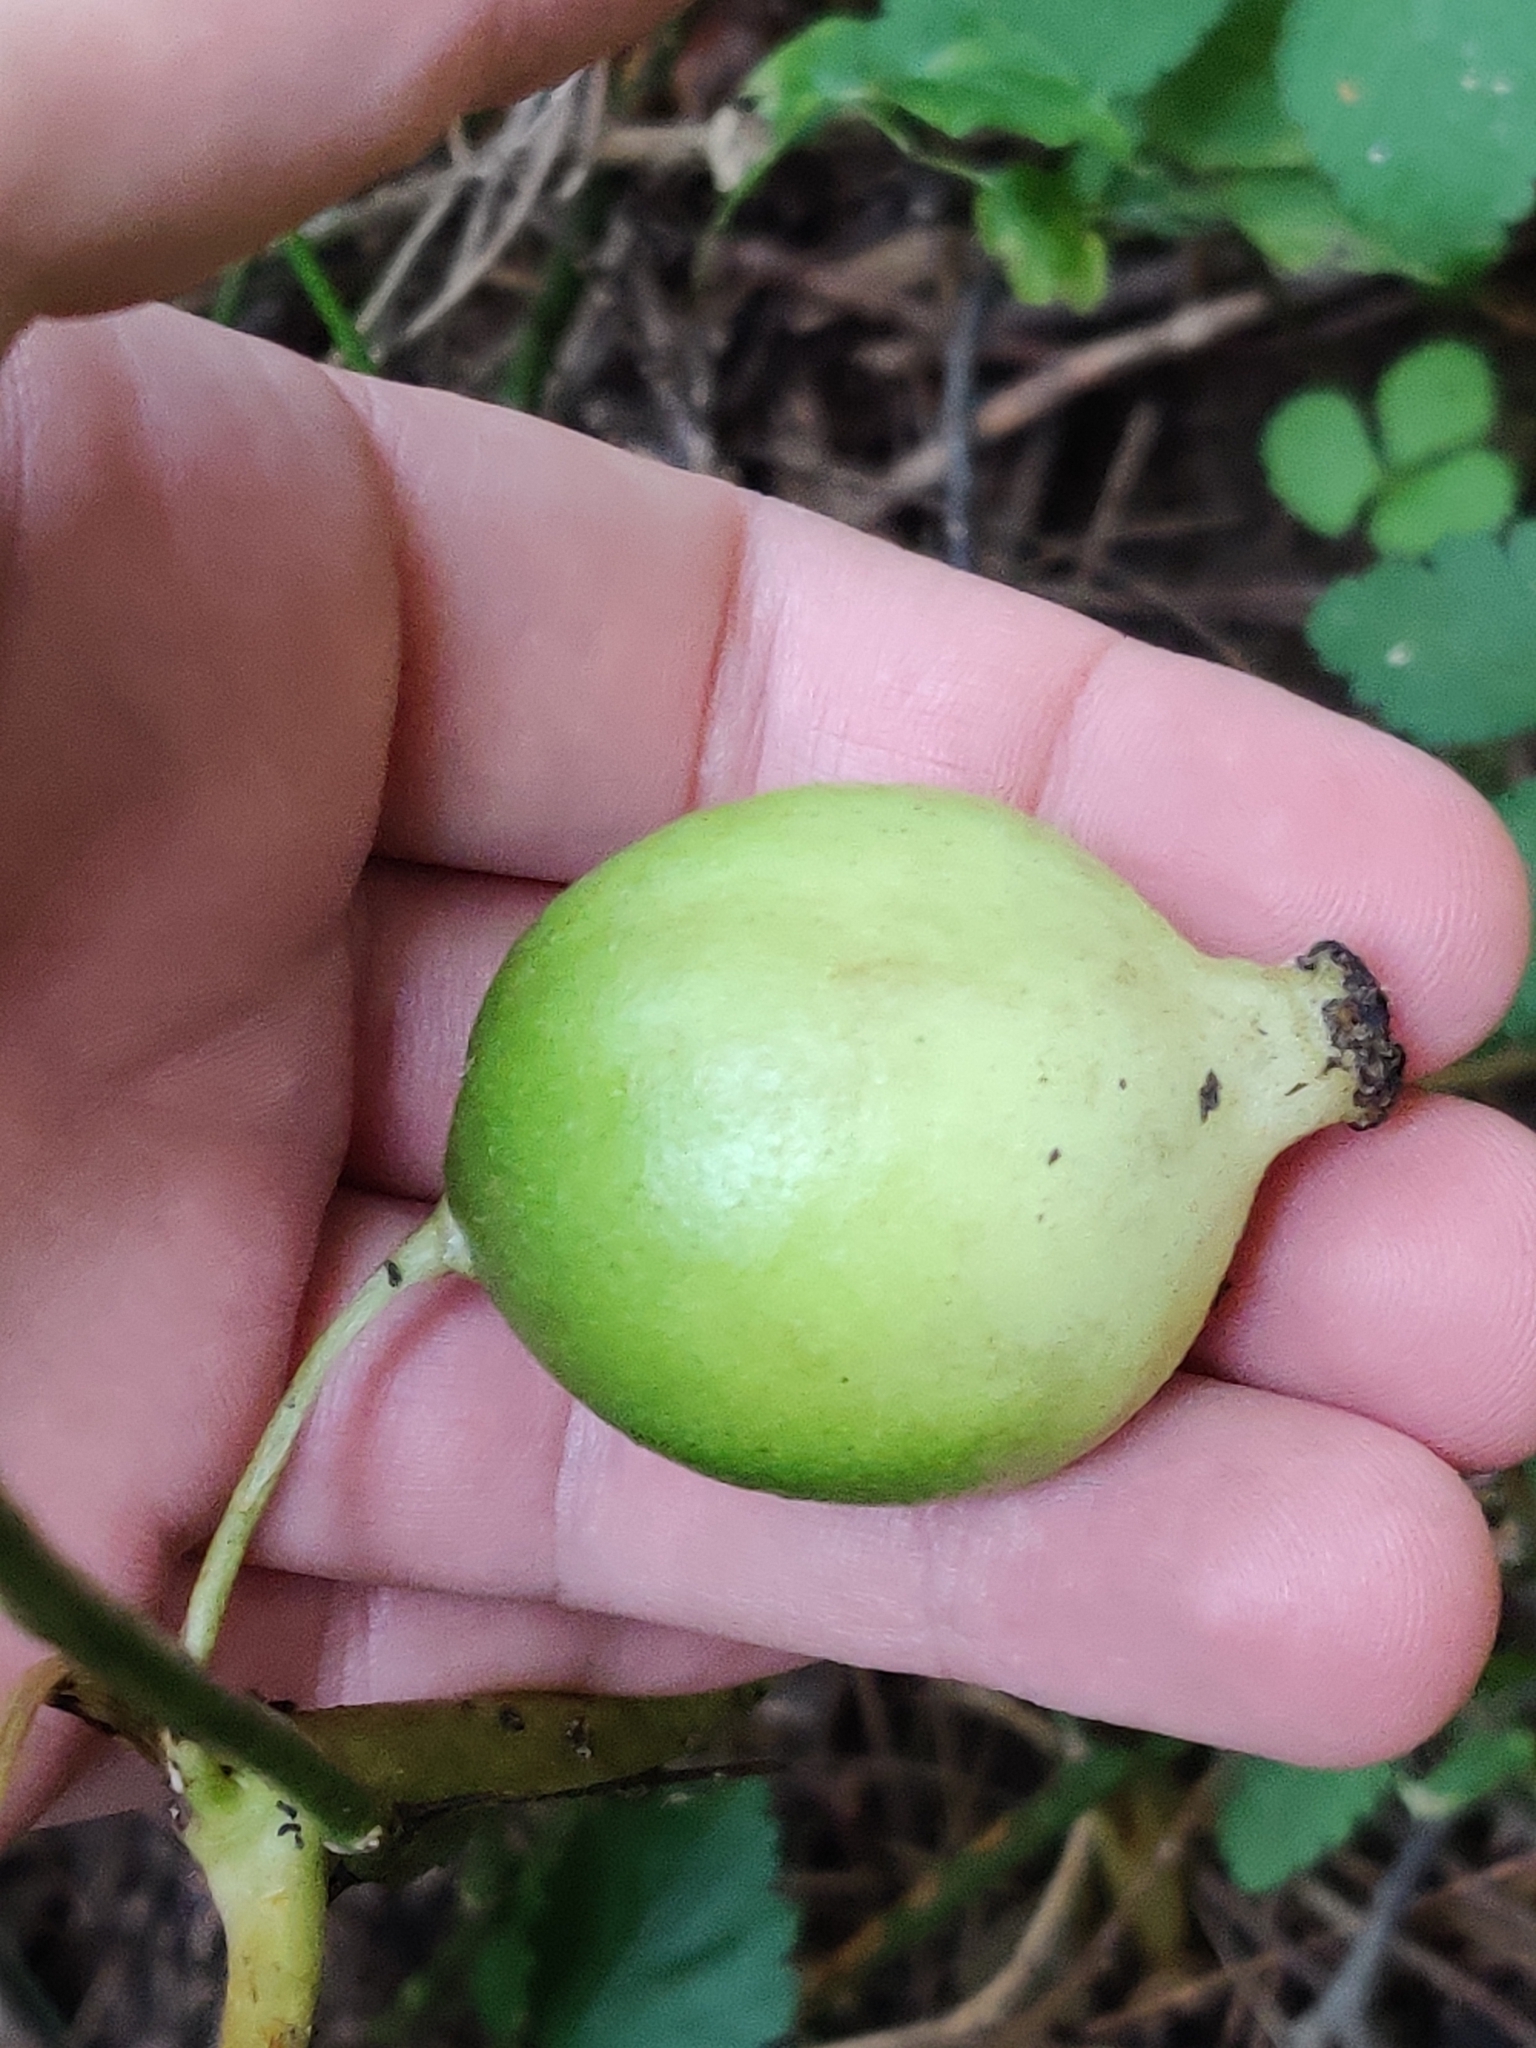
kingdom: Plantae
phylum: Tracheophyta
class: Magnoliopsida
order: Ranunculales
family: Berberidaceae
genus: Podophyllum
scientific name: Podophyllum peltatum
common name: Wild mandrake
